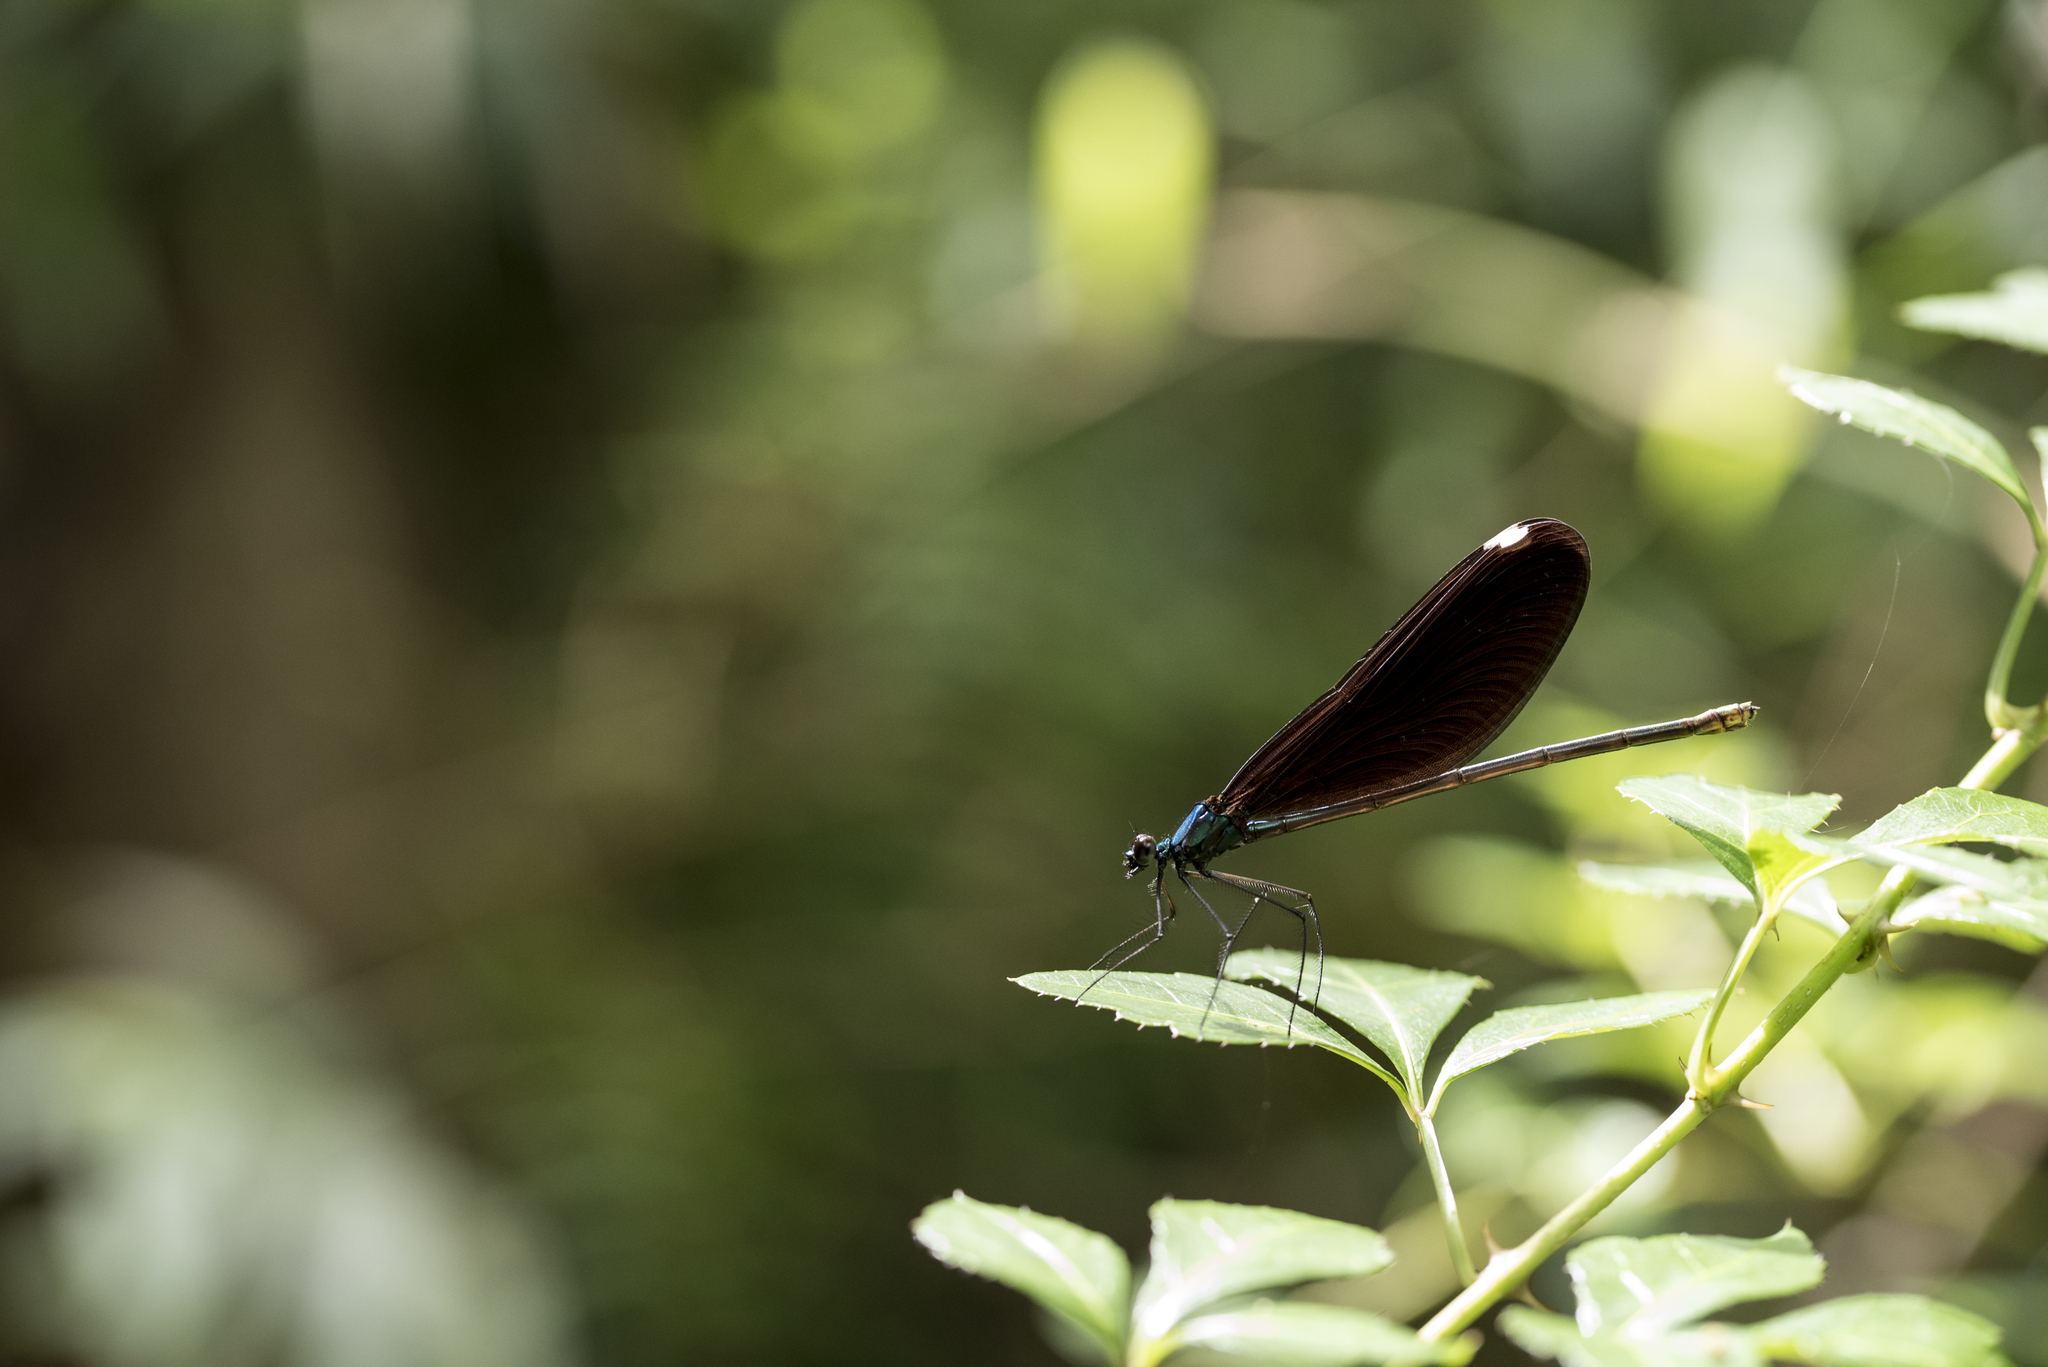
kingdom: Animalia
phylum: Arthropoda
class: Insecta
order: Odonata
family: Calopterygidae
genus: Matrona
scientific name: Matrona cyanoptera
